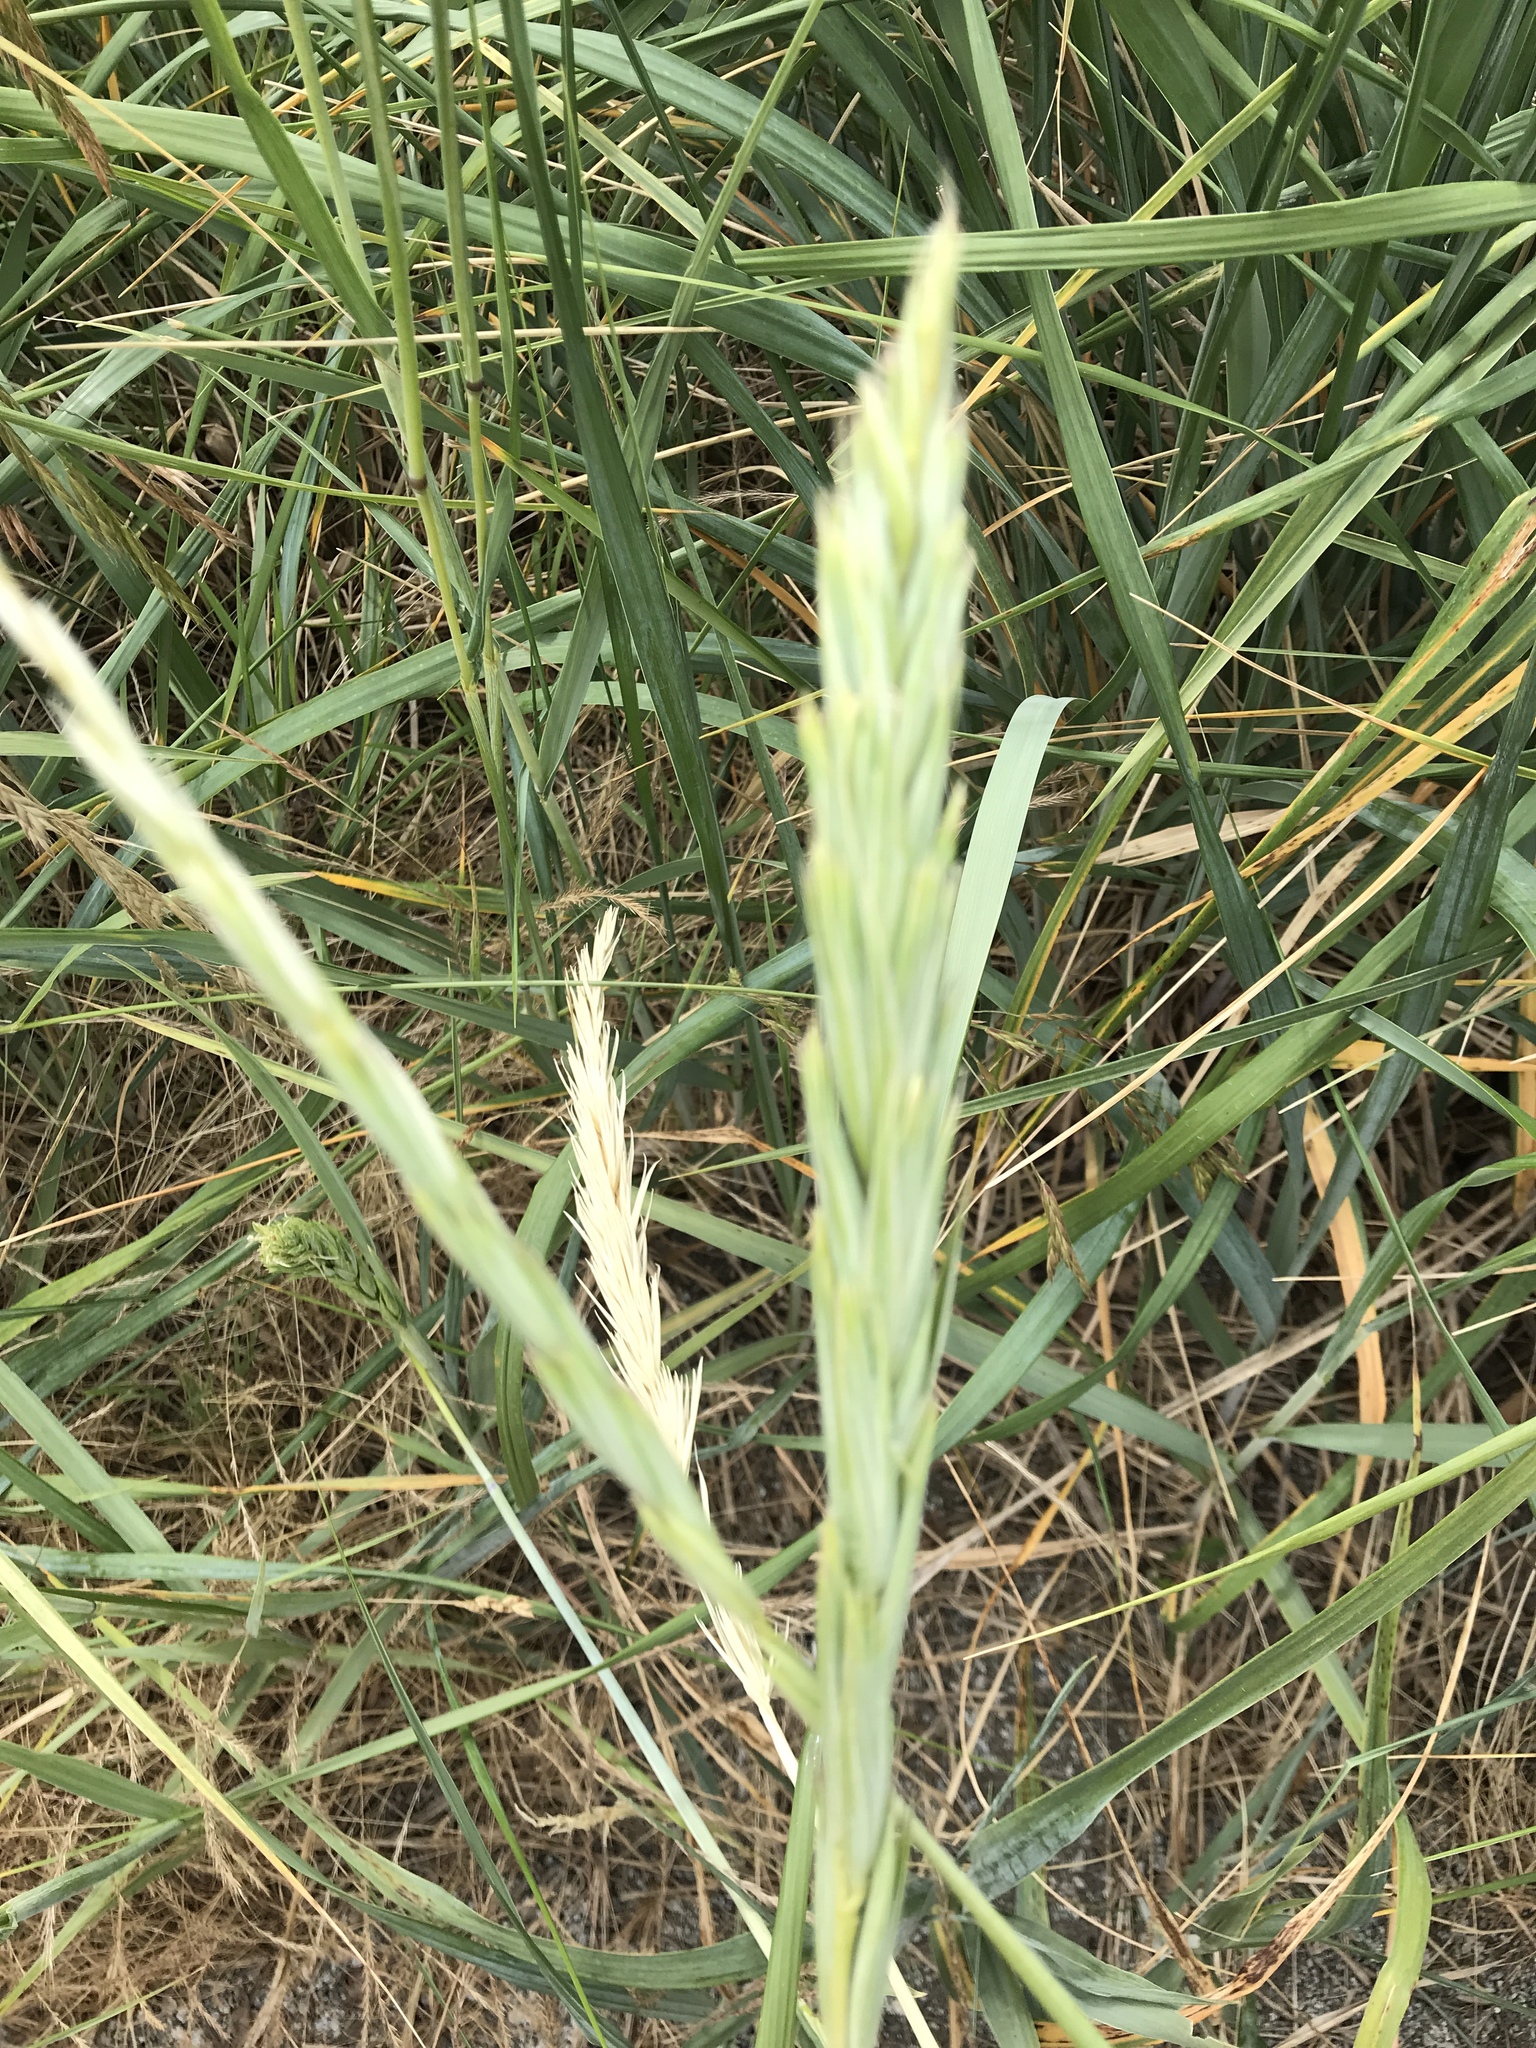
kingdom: Plantae
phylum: Tracheophyta
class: Liliopsida
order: Poales
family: Poaceae
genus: Leymus
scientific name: Leymus mollis
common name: American dune grass
